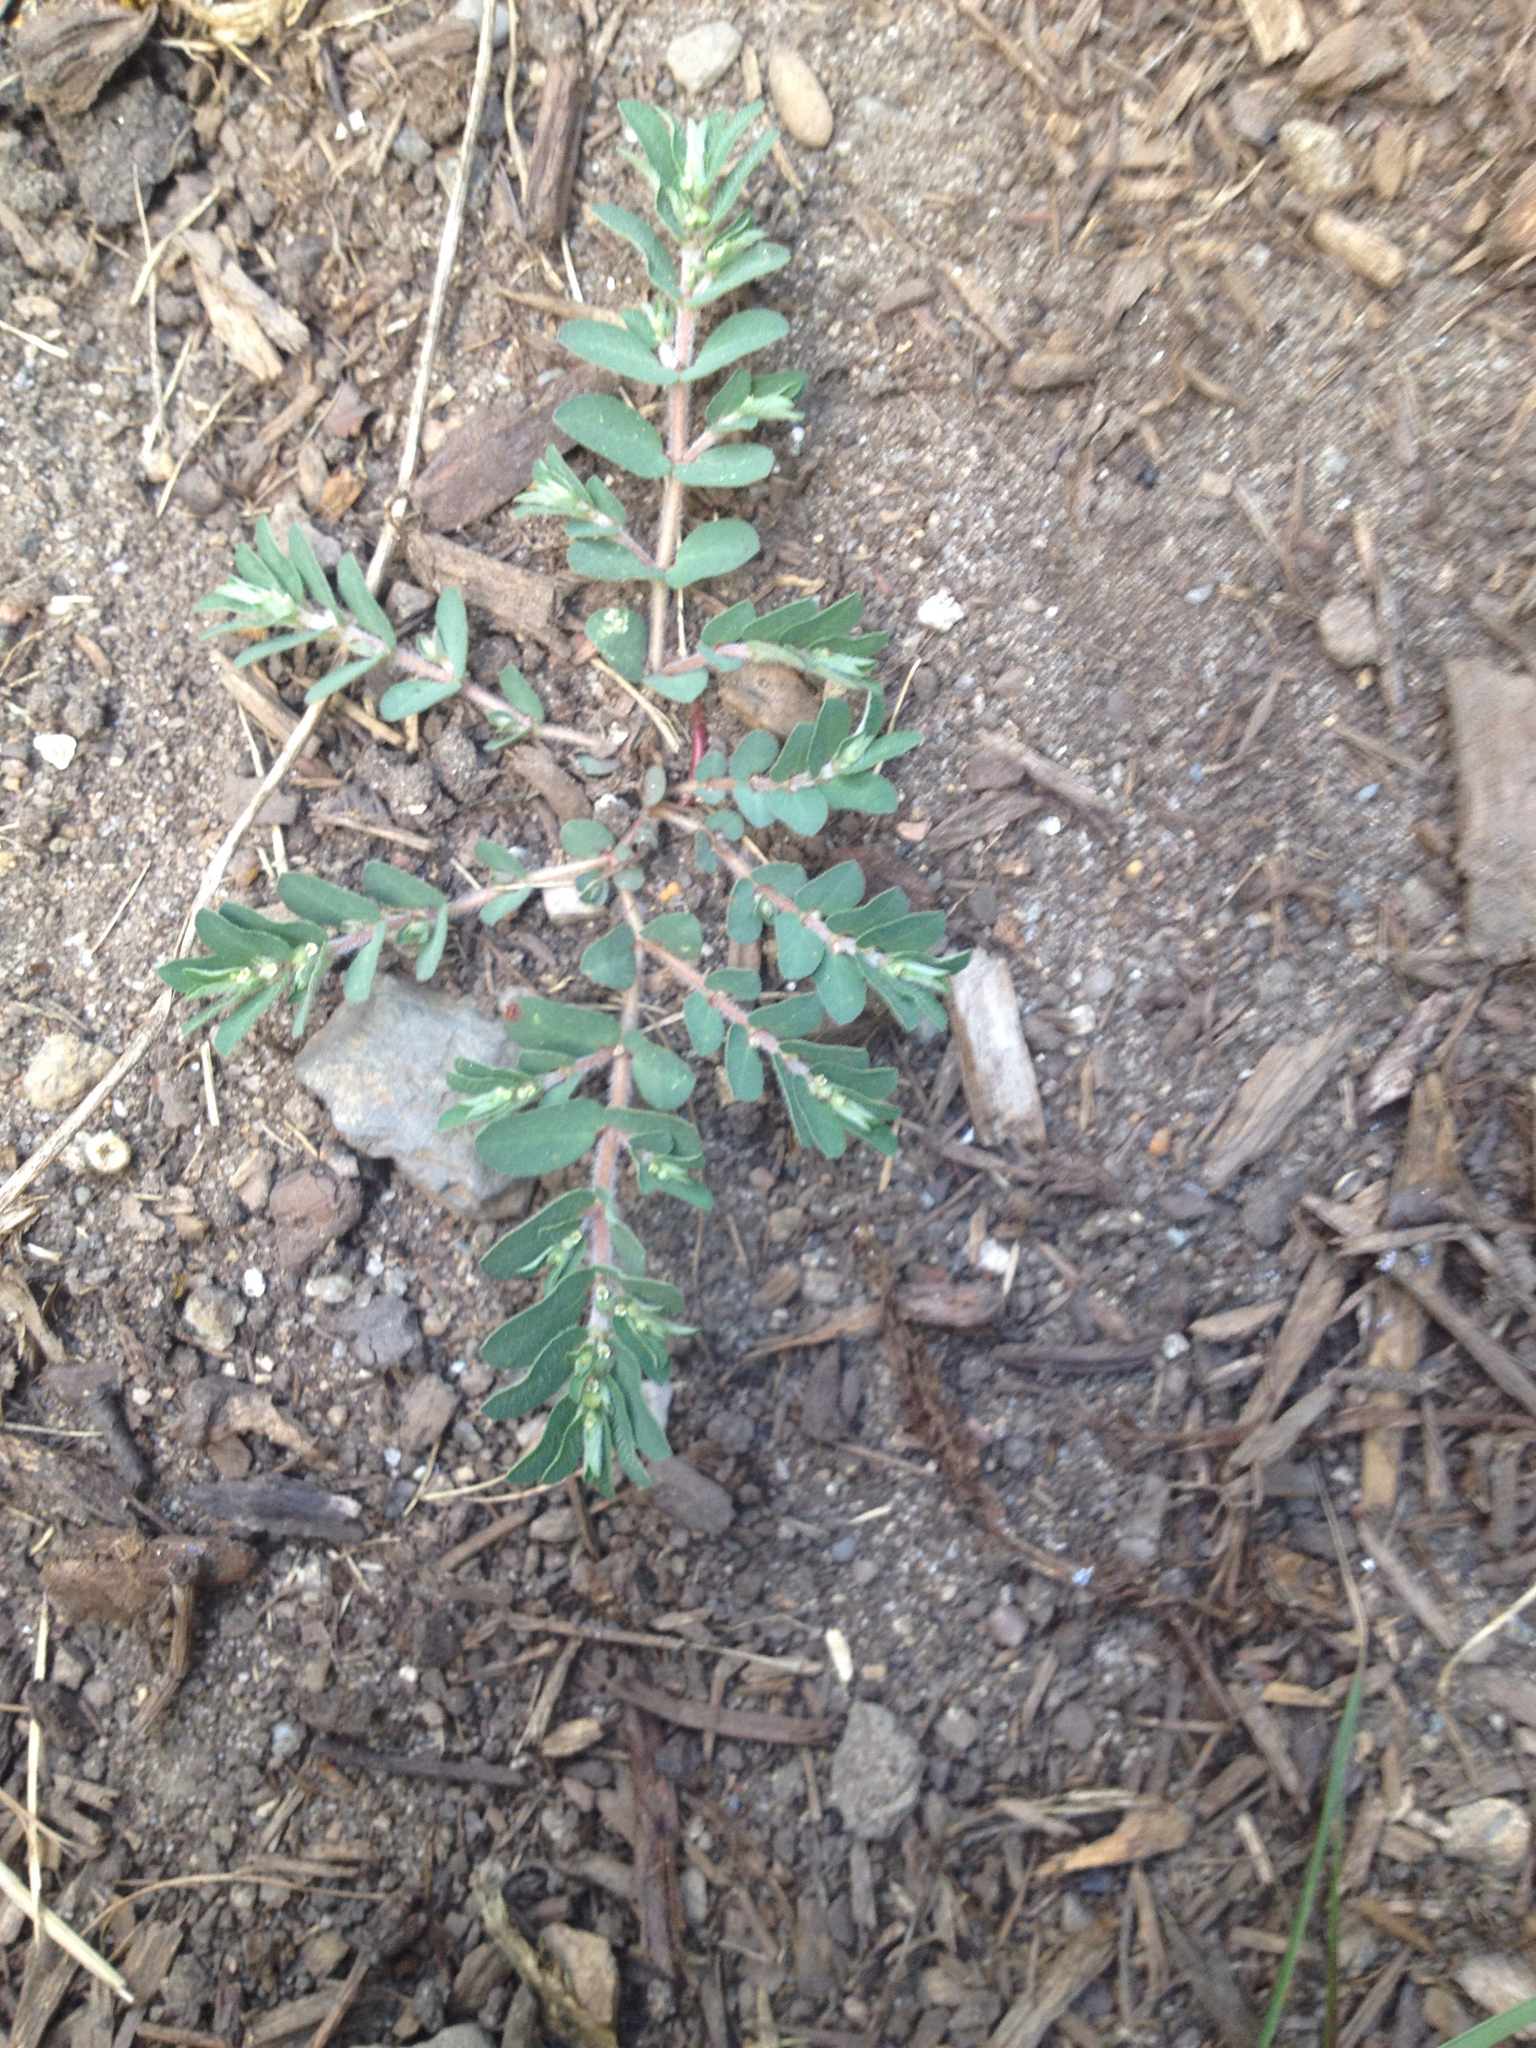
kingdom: Plantae
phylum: Tracheophyta
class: Magnoliopsida
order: Malpighiales
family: Euphorbiaceae
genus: Euphorbia
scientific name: Euphorbia maculata
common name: Spotted spurge
